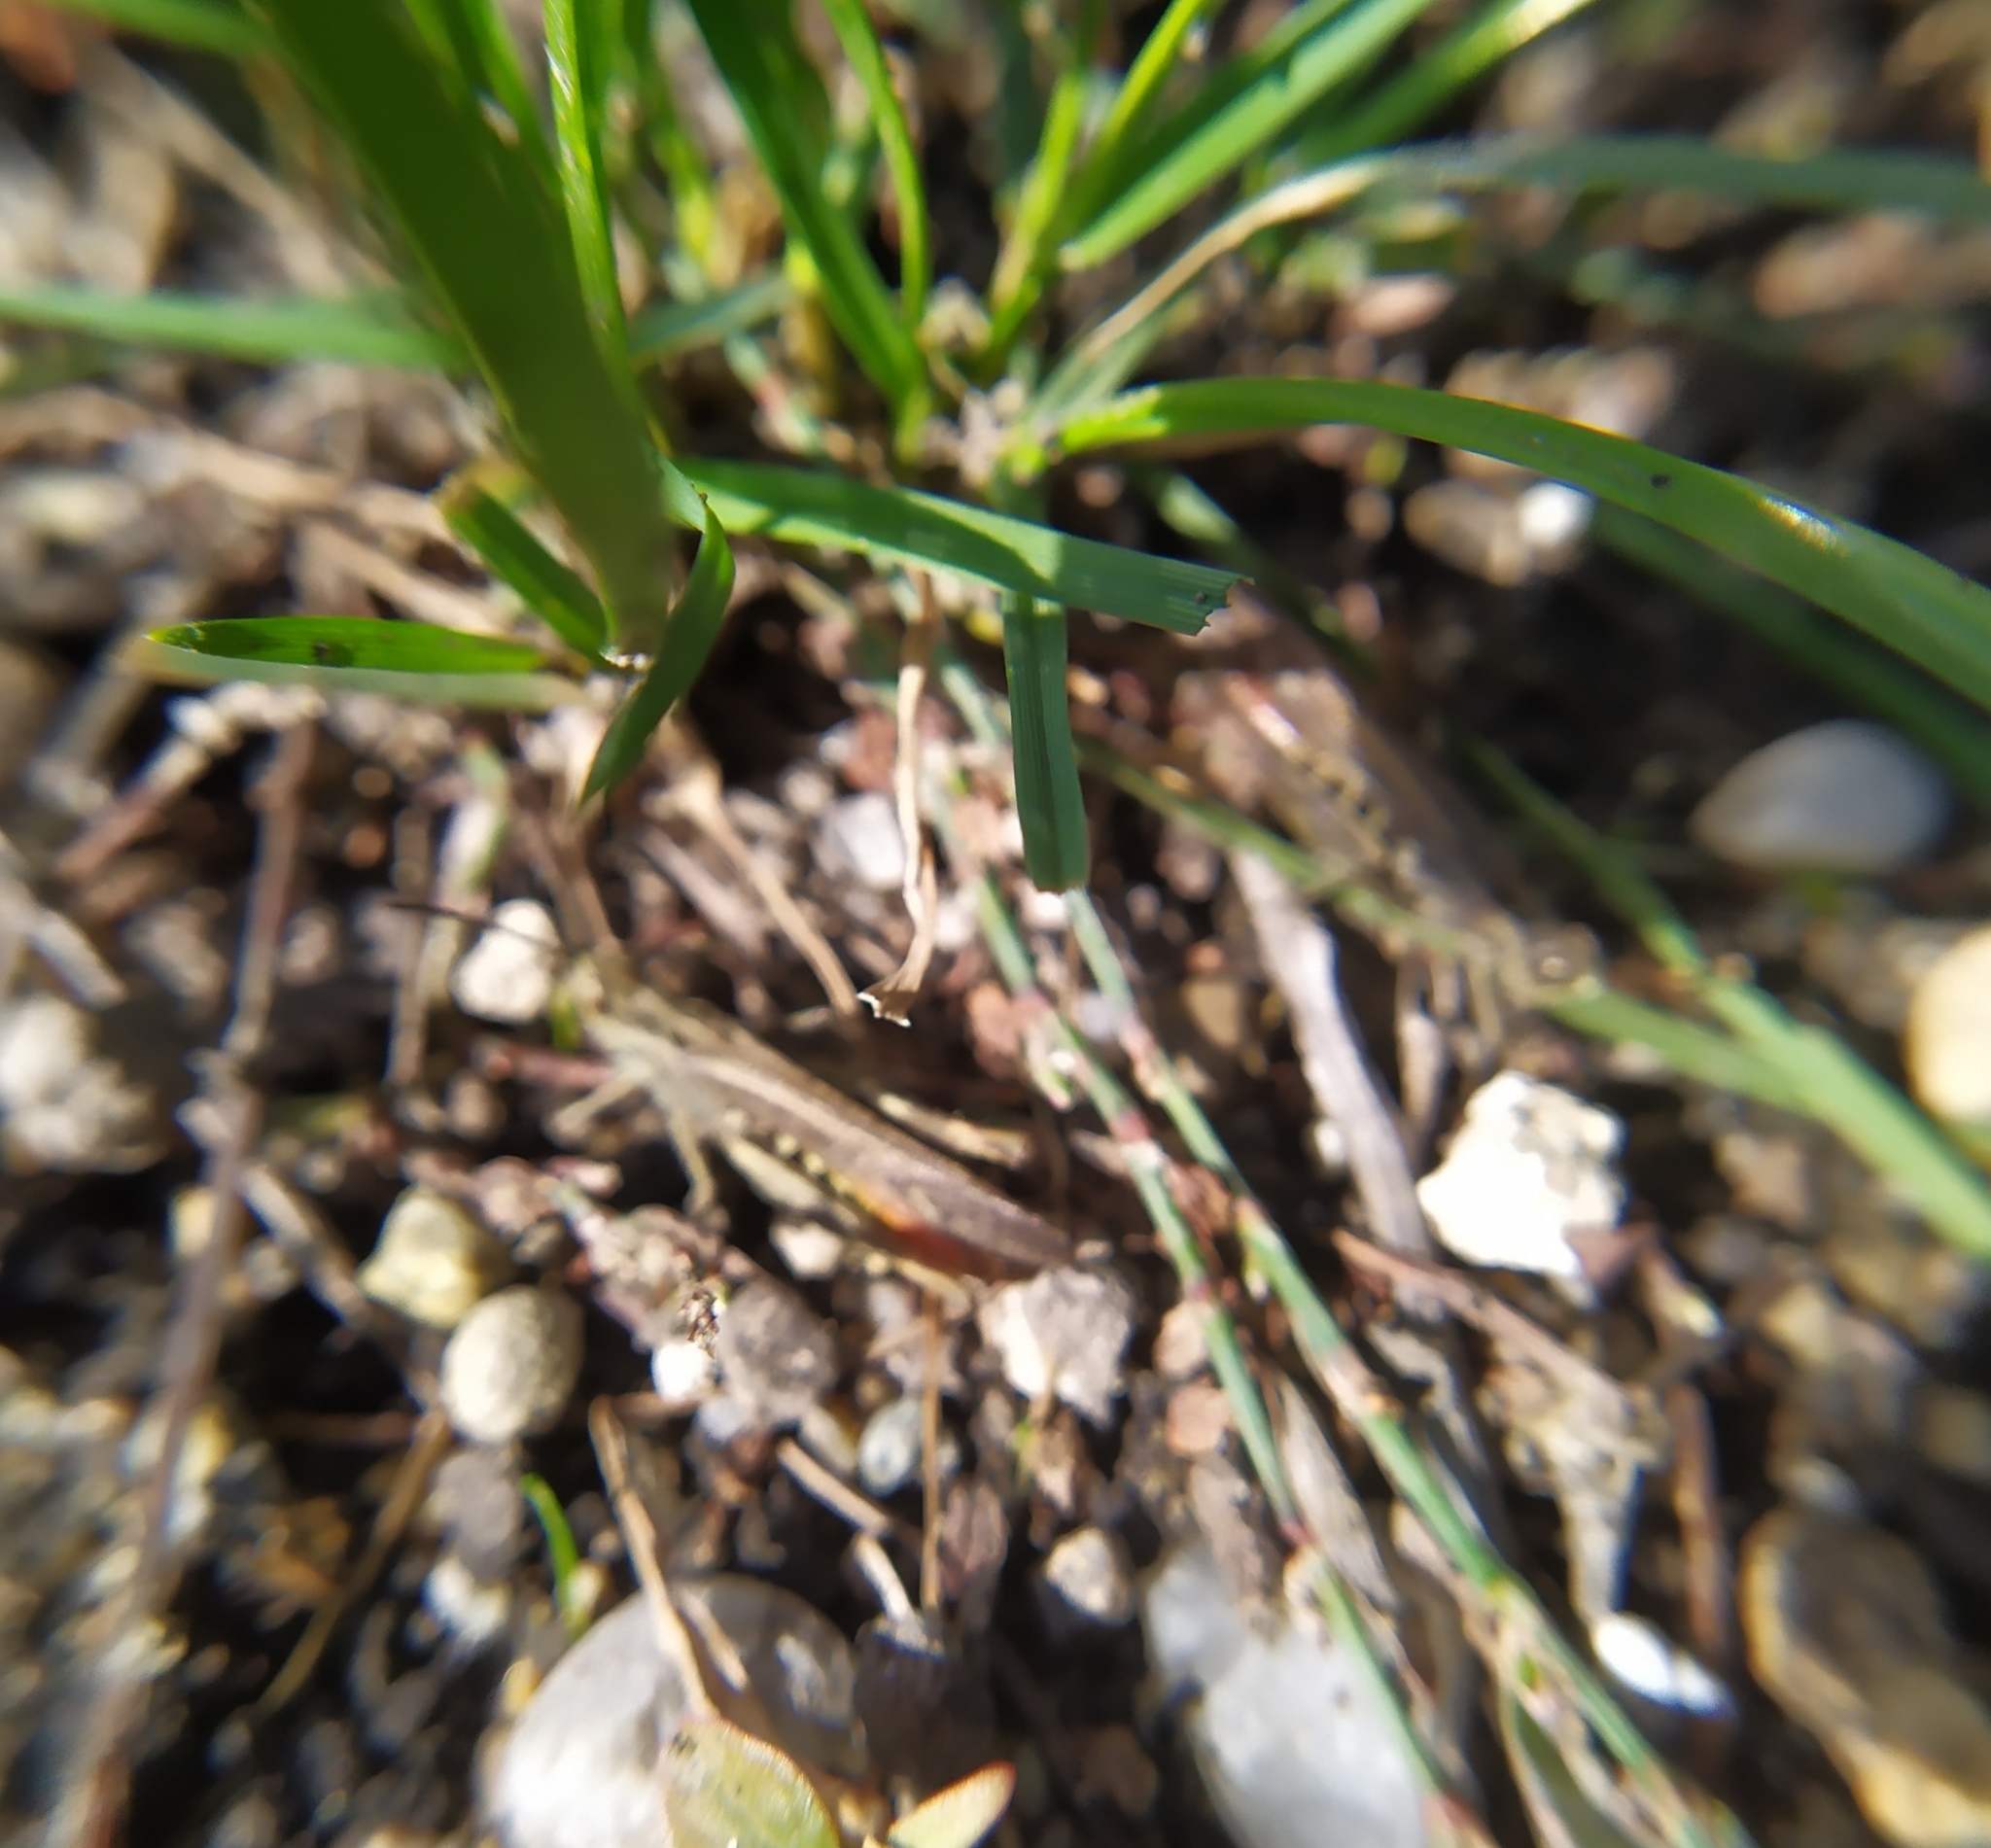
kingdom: Animalia
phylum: Arthropoda
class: Insecta
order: Orthoptera
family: Acrididae
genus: Chorthippus
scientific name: Chorthippus brunneus
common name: Field grasshopper
